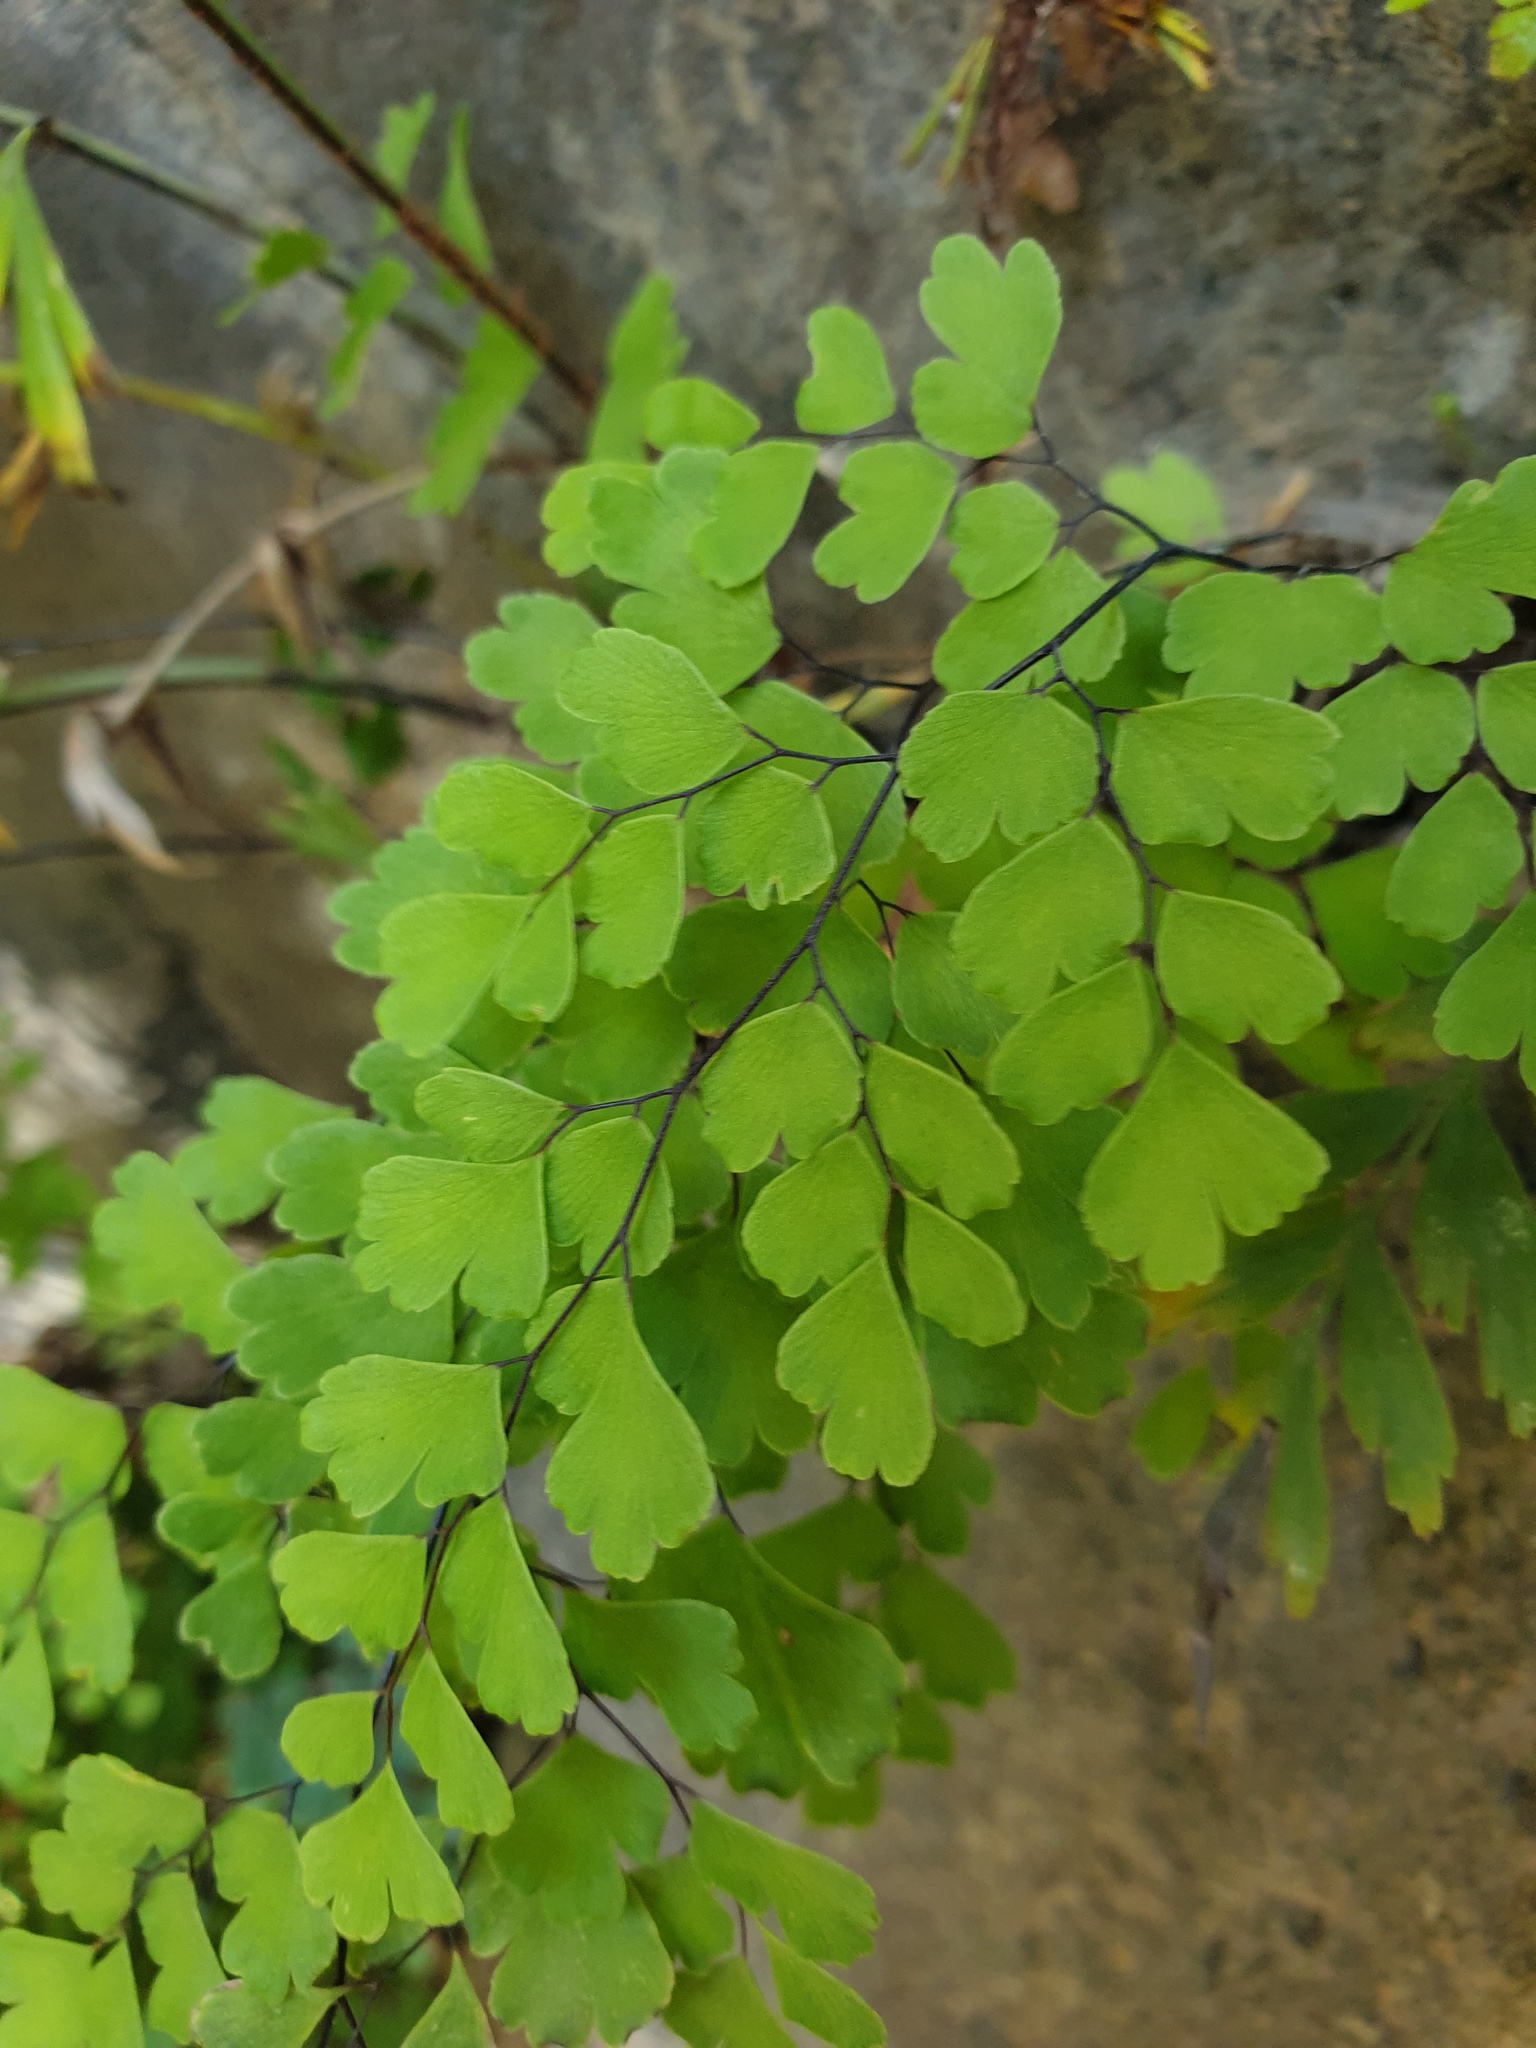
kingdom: Plantae
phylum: Tracheophyta
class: Polypodiopsida
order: Polypodiales
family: Pteridaceae
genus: Adiantum
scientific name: Adiantum capillus-veneris
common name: Maidenhair fern
